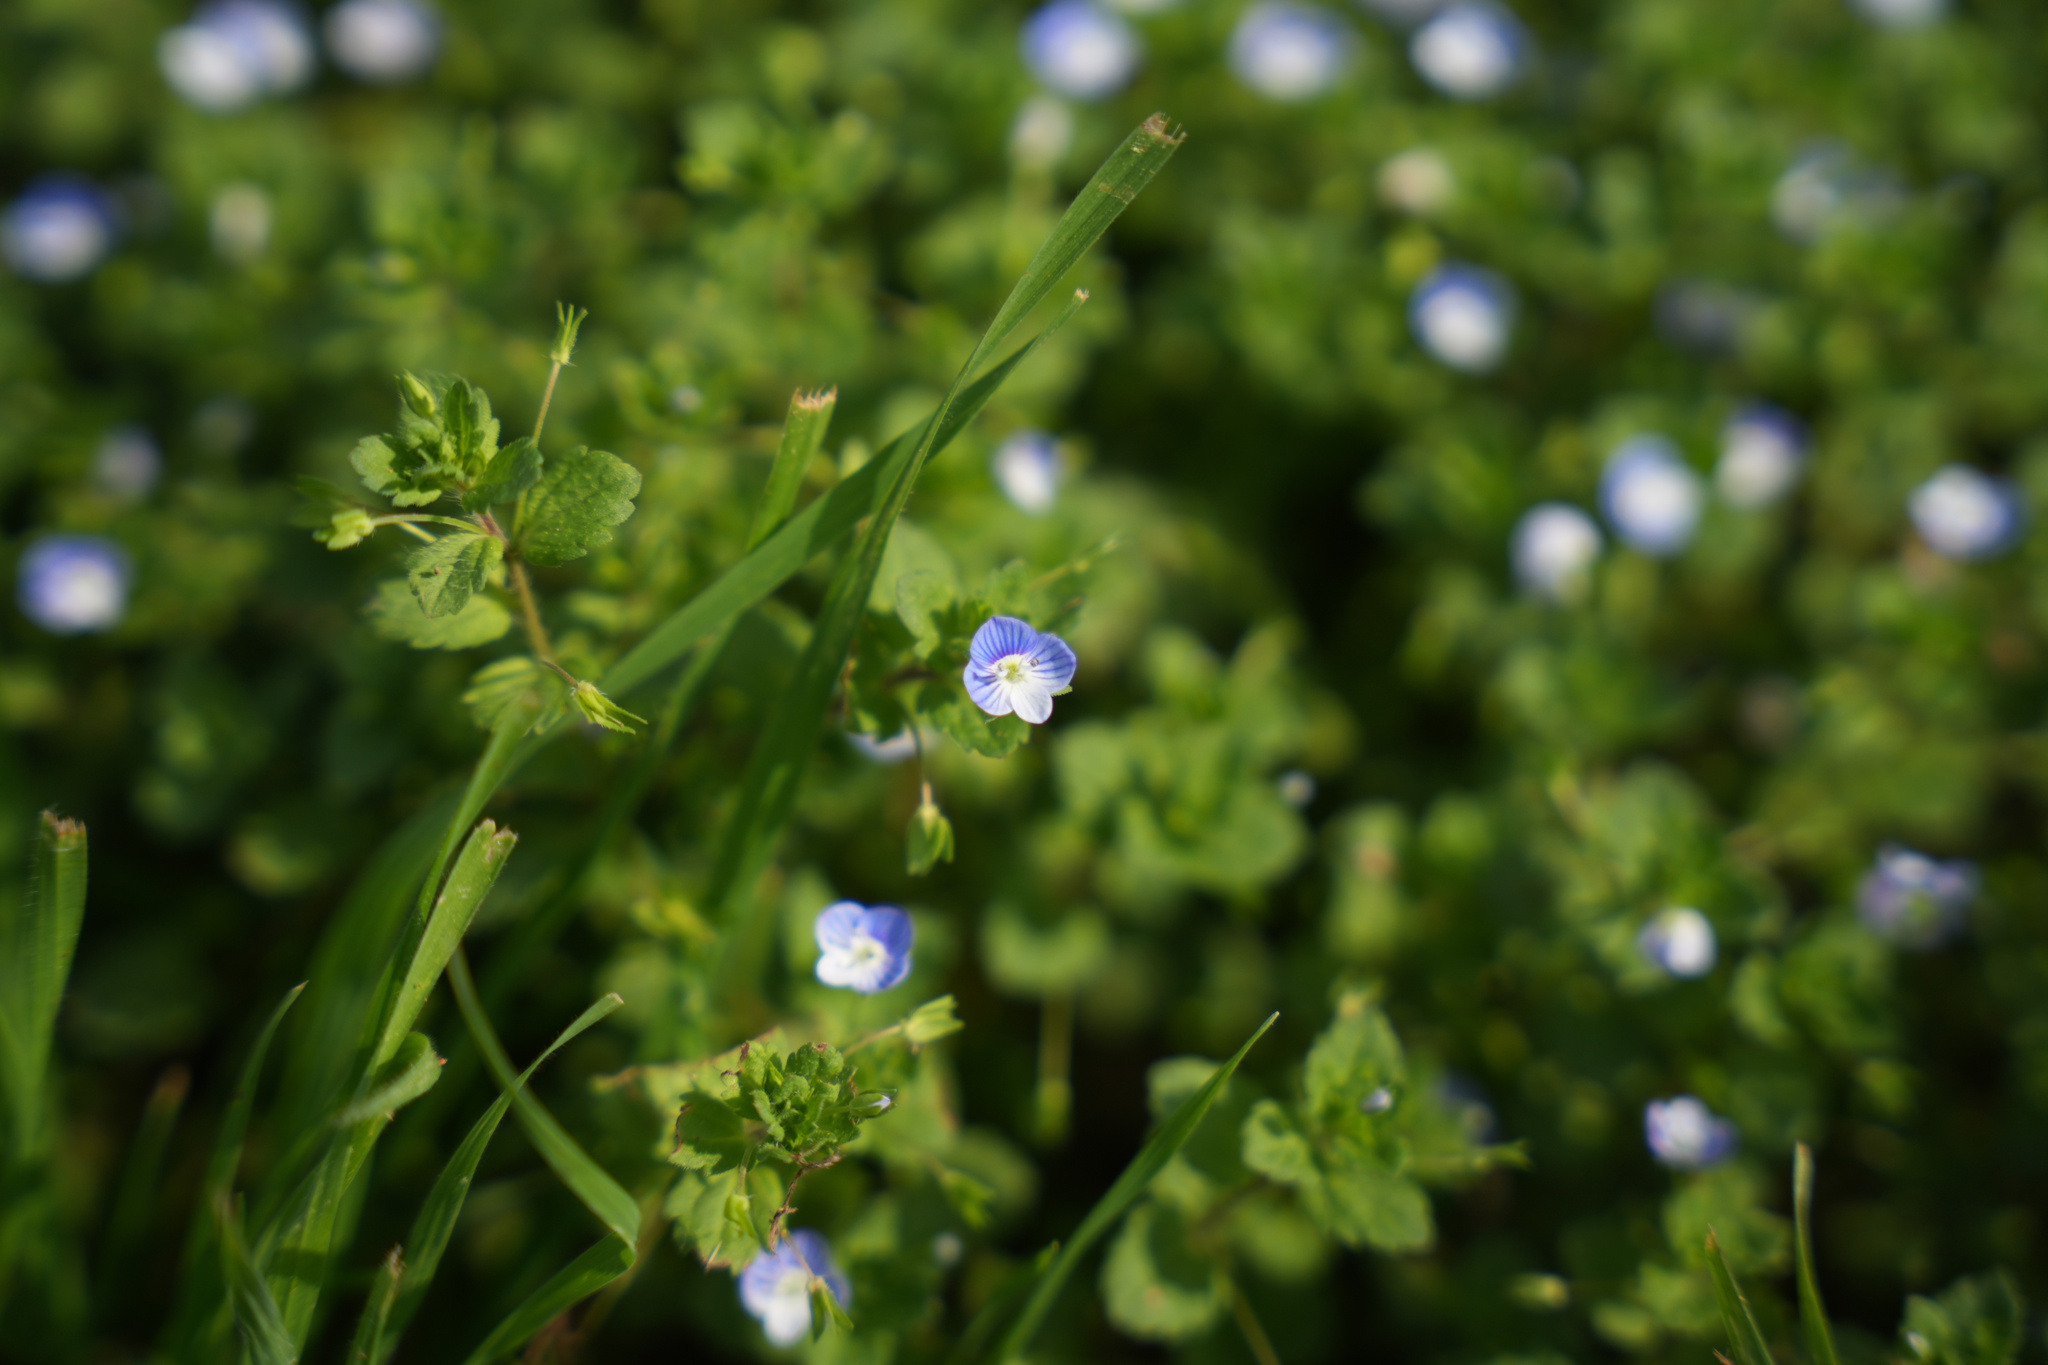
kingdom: Plantae
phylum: Tracheophyta
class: Magnoliopsida
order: Lamiales
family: Plantaginaceae
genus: Veronica
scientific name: Veronica persica
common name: Common field-speedwell
